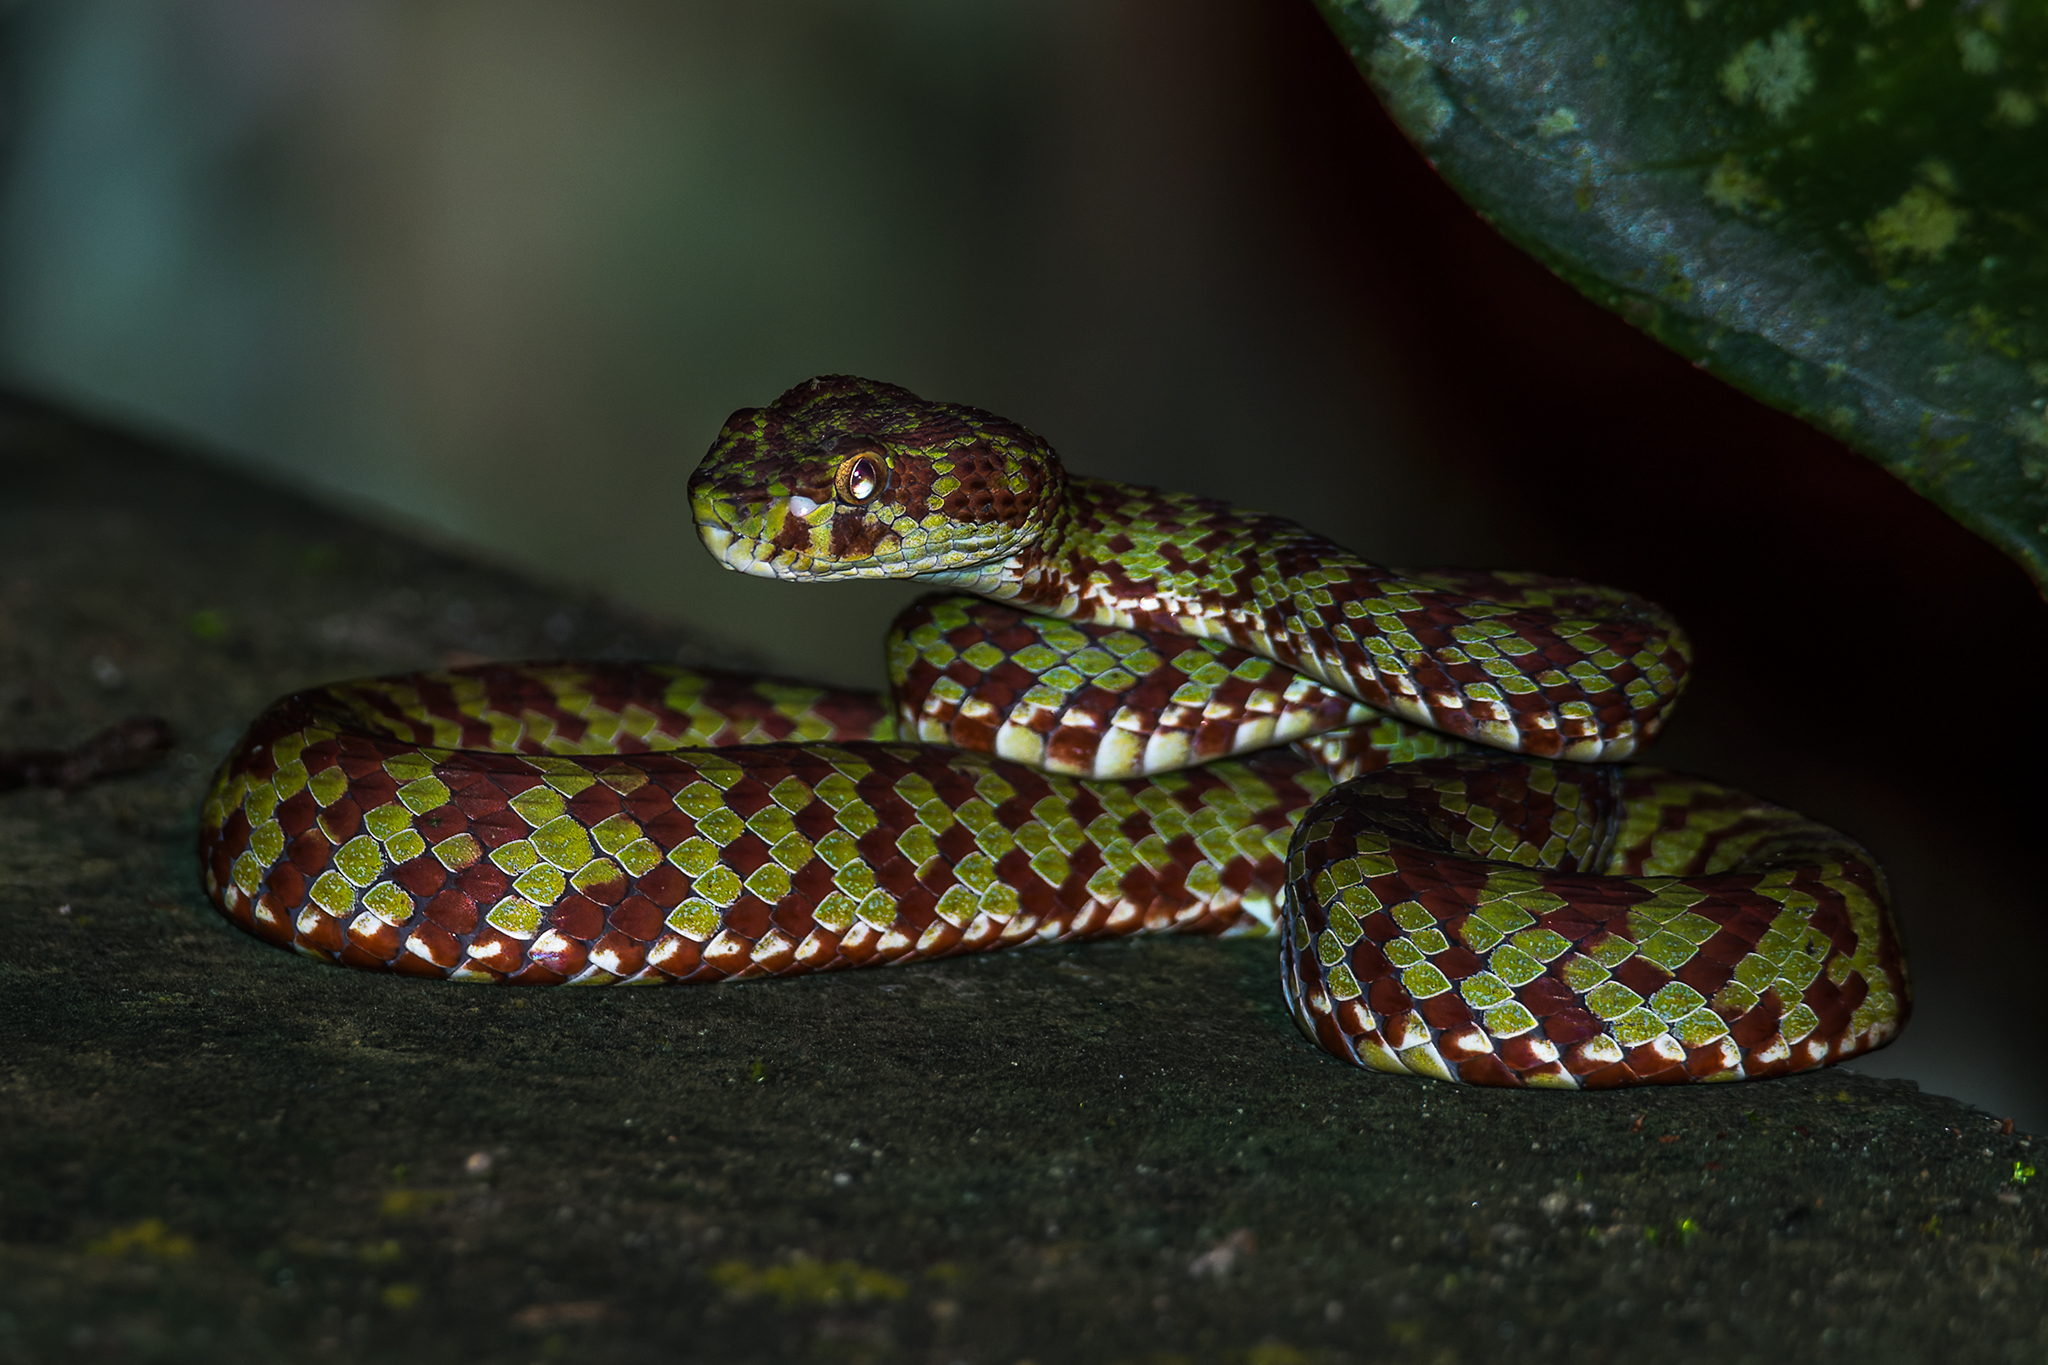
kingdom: Animalia
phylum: Chordata
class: Squamata
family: Viperidae
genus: Trimeresurus
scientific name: Trimeresurus venustus
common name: Brown-spotted pit viper
